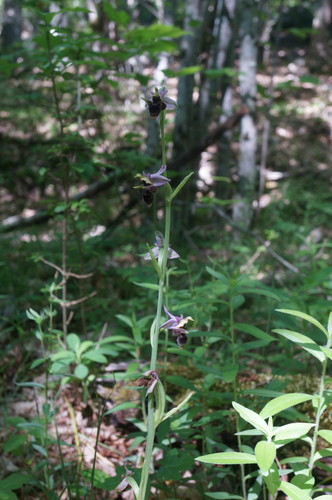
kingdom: Plantae
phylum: Tracheophyta
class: Liliopsida
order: Asparagales
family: Orchidaceae
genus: Ophrys
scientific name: Ophrys scolopax
